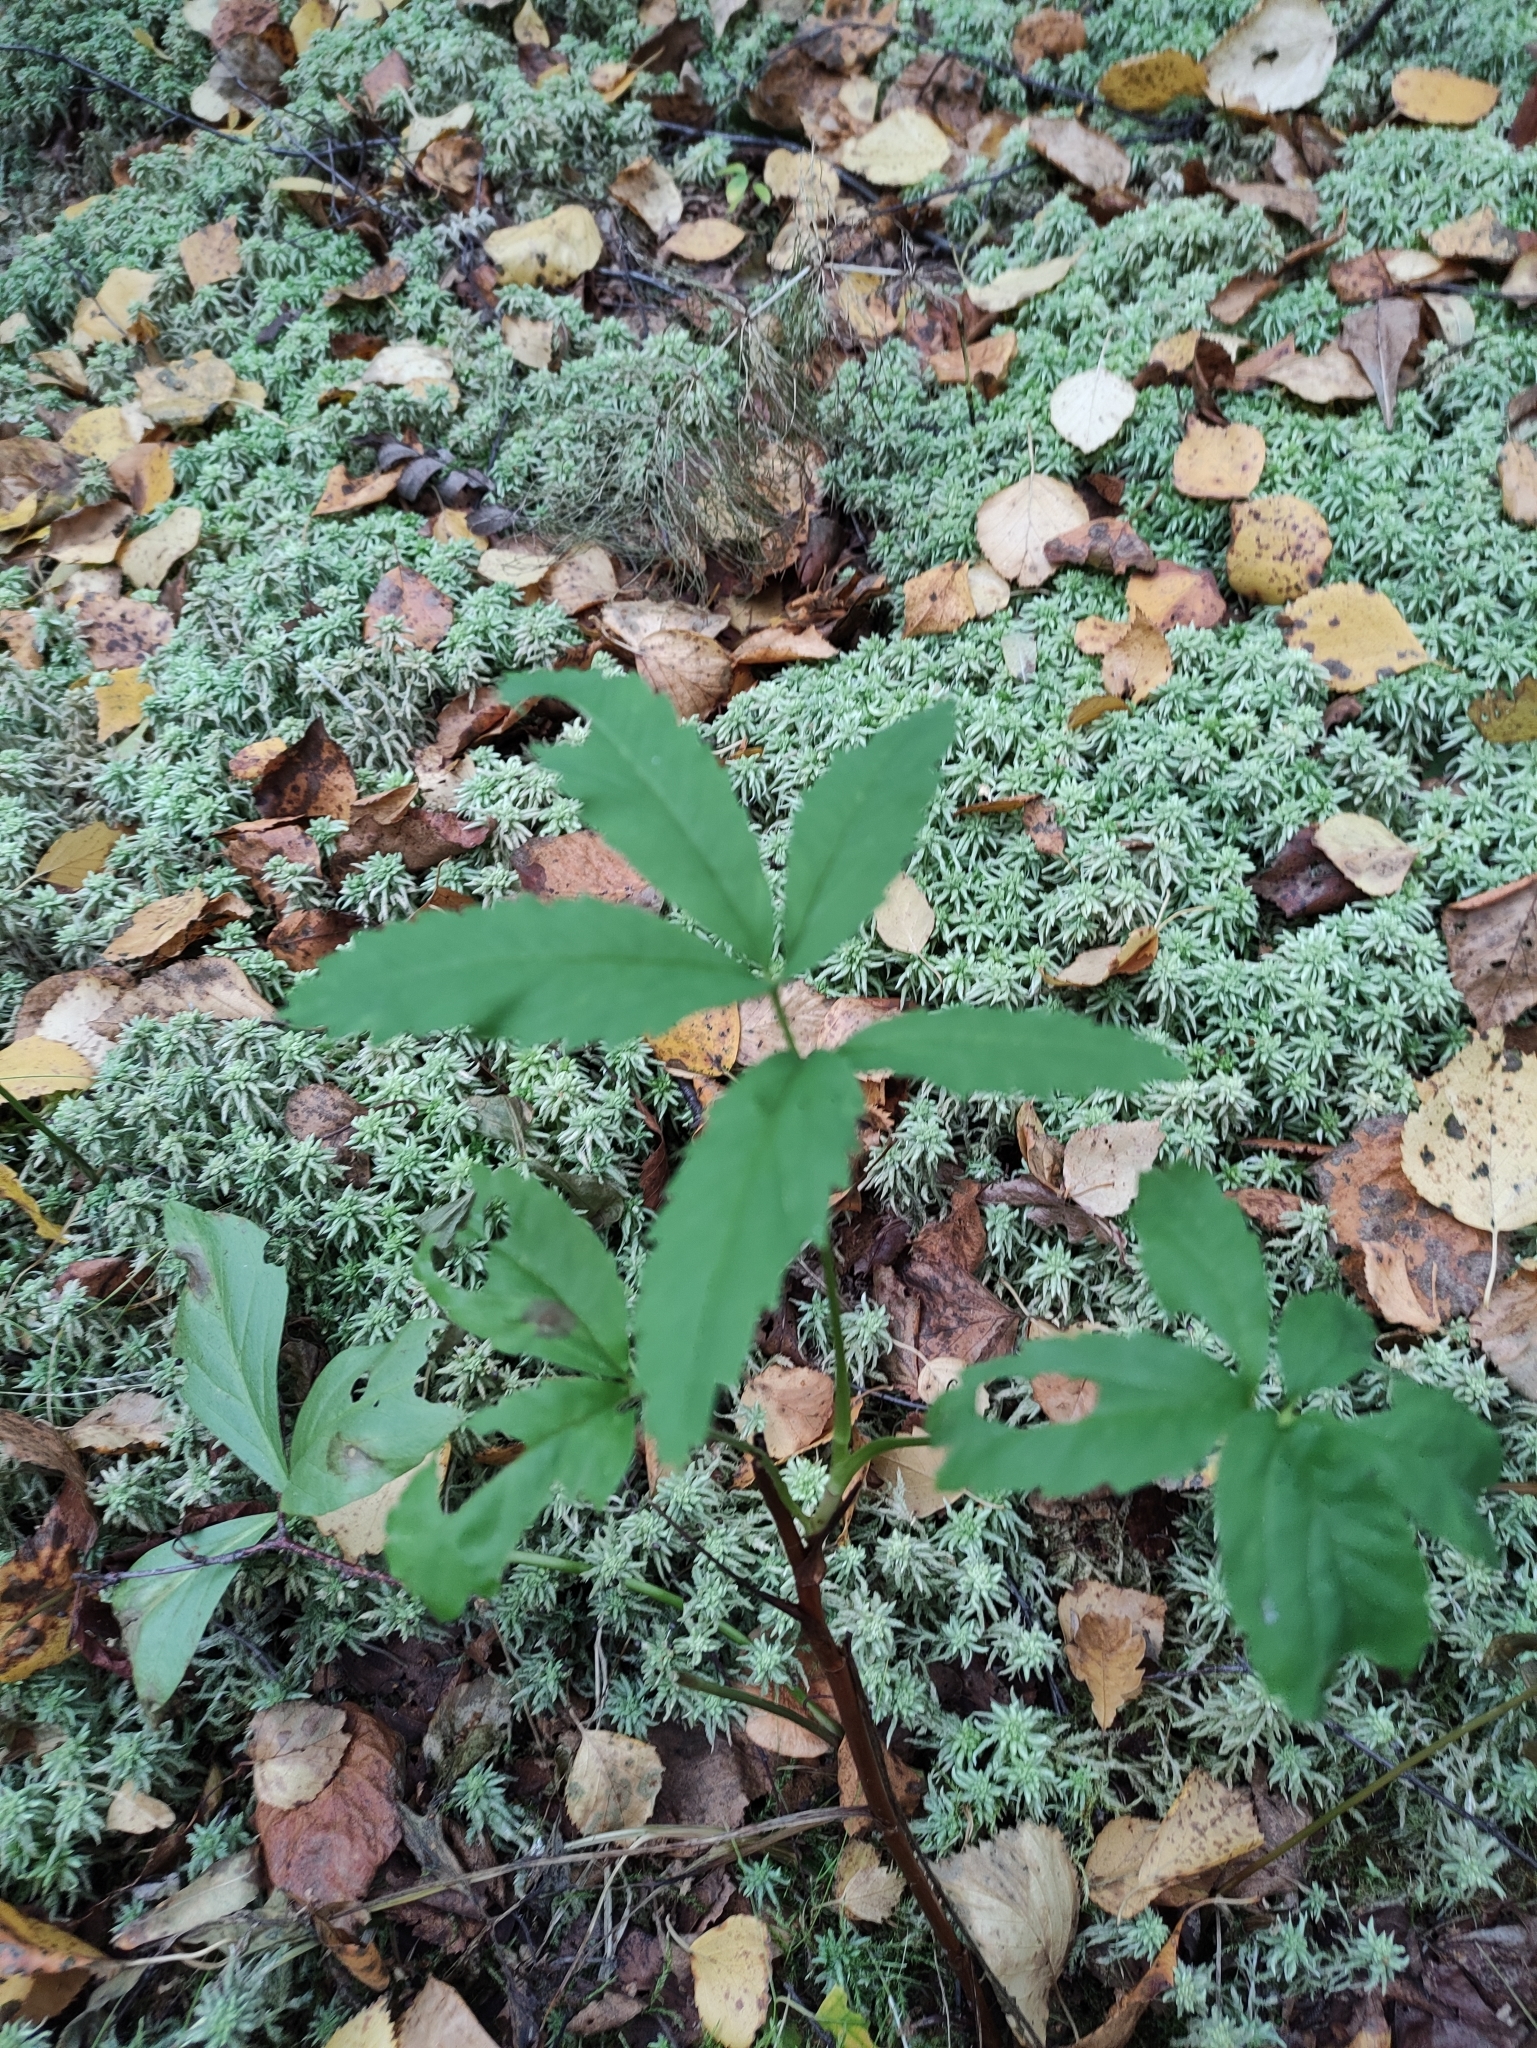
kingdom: Plantae
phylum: Tracheophyta
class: Magnoliopsida
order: Rosales
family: Rosaceae
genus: Comarum
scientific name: Comarum palustre
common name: Marsh cinquefoil
